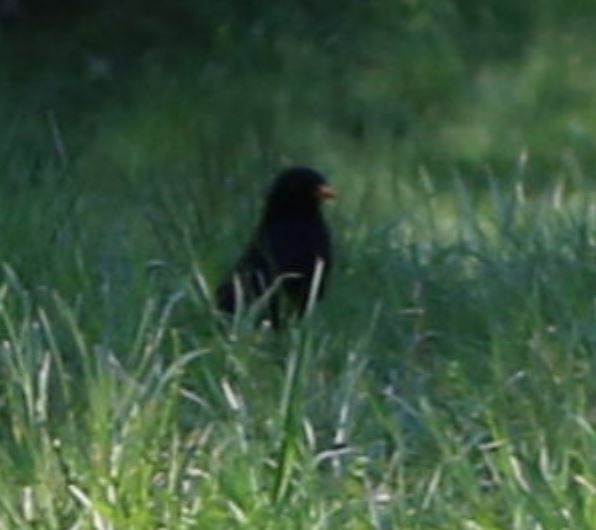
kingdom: Animalia
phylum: Chordata
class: Aves
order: Passeriformes
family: Turdidae
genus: Turdus
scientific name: Turdus merula
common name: Common blackbird
